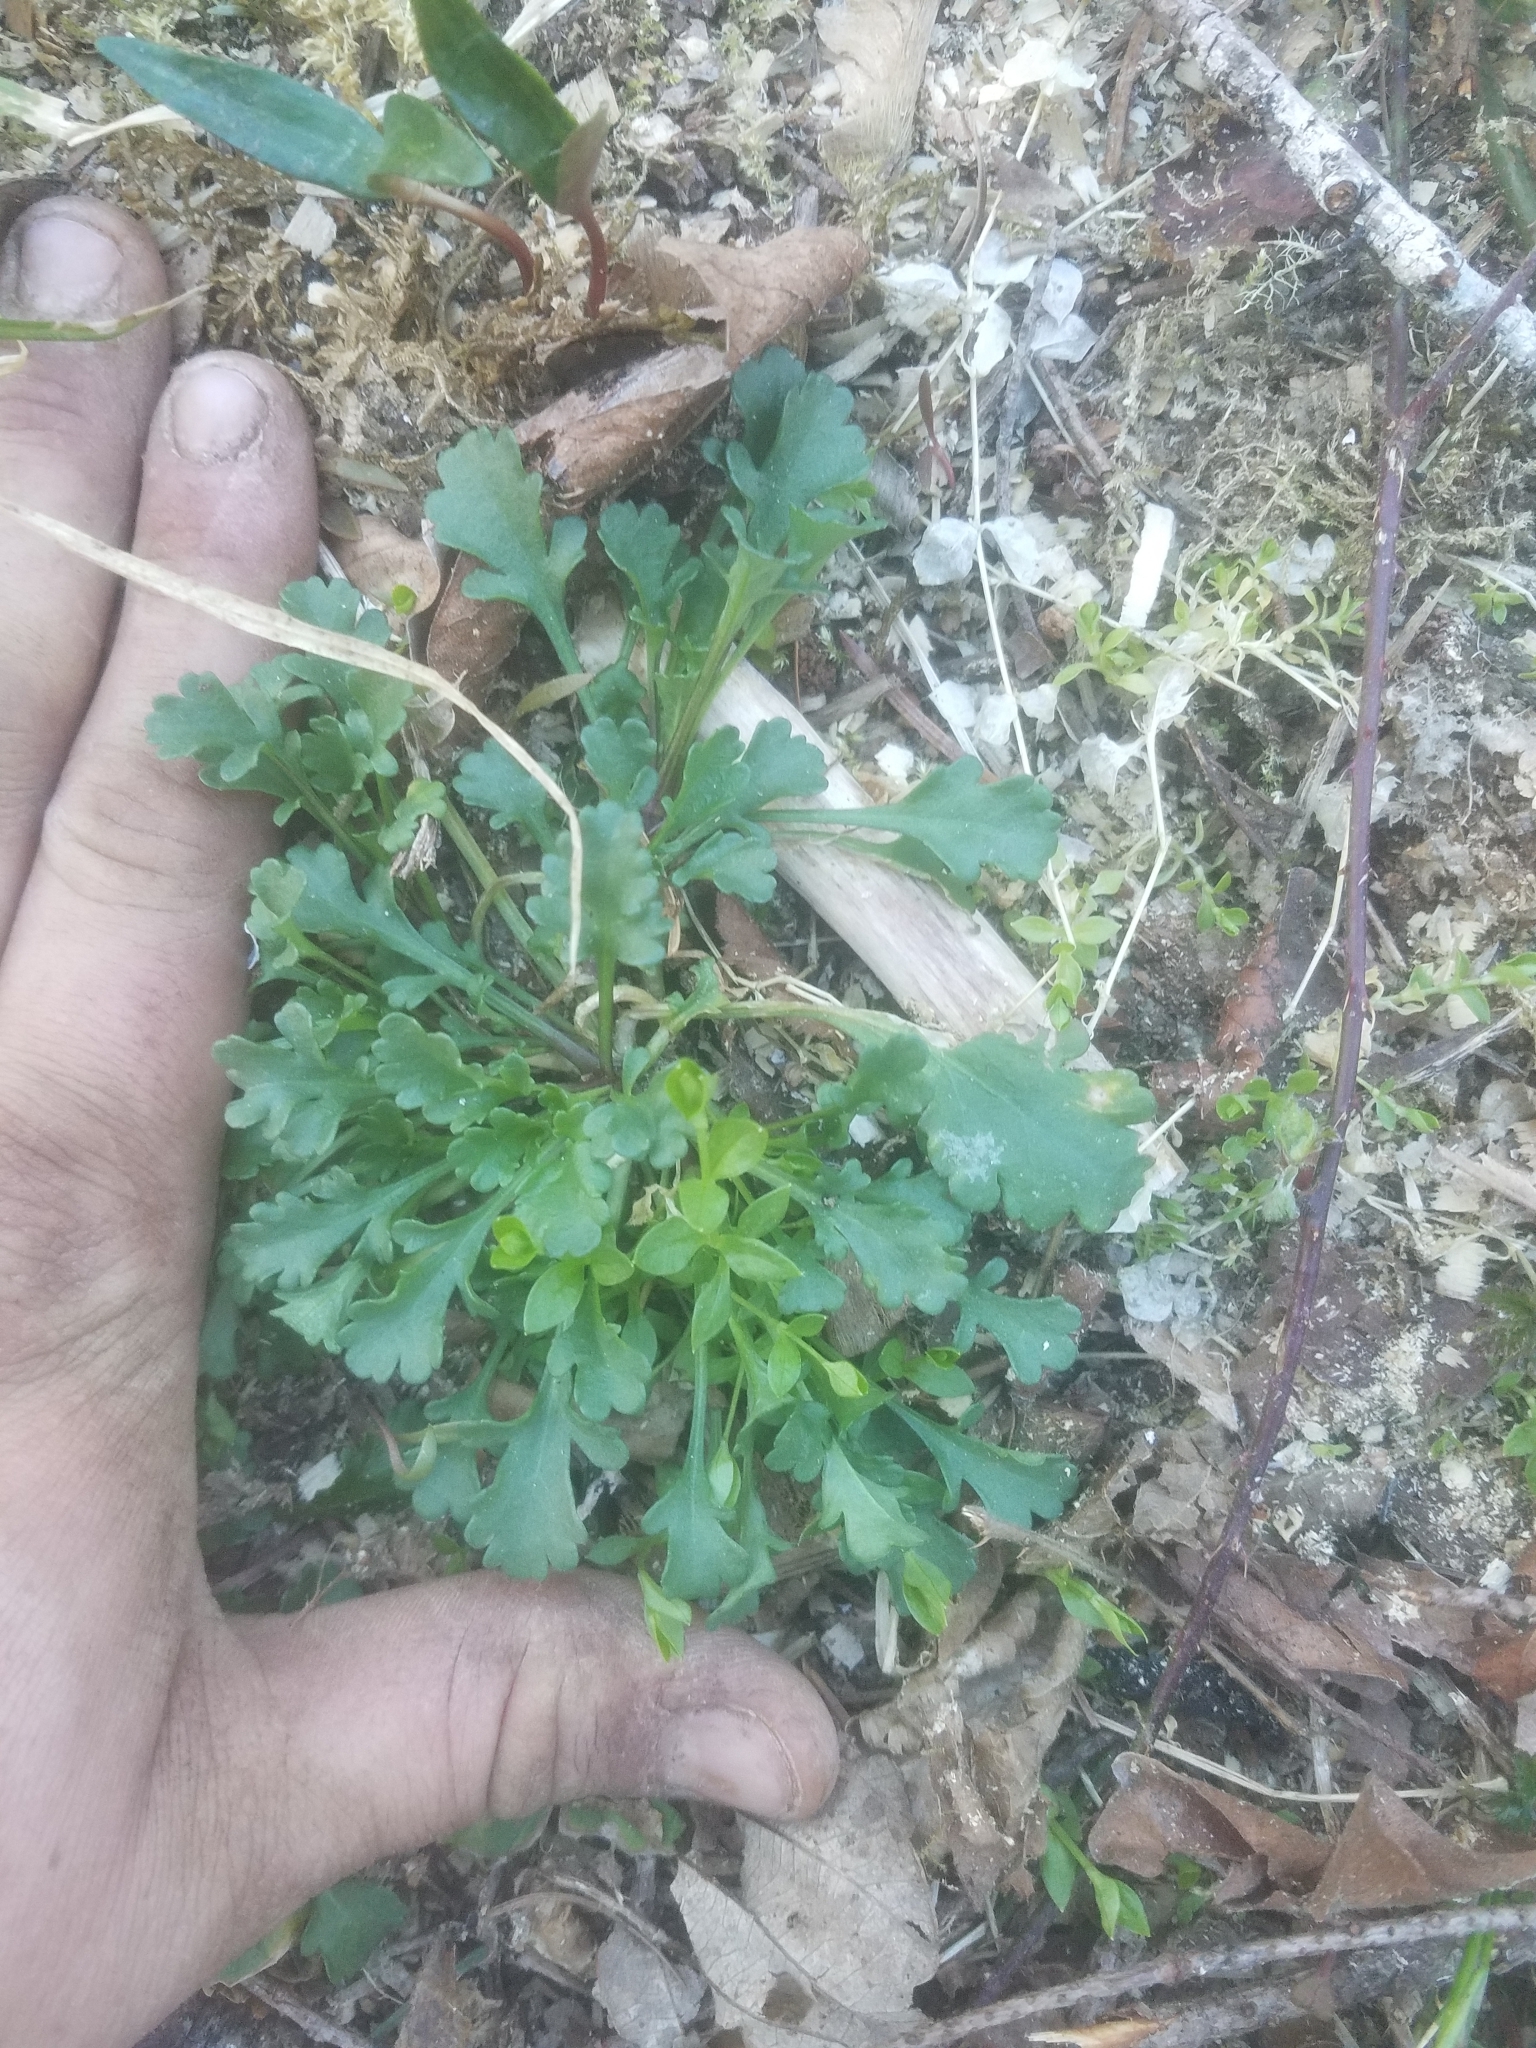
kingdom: Plantae
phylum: Tracheophyta
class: Magnoliopsida
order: Asterales
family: Asteraceae
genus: Leucanthemum
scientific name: Leucanthemum vulgare
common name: Oxeye daisy
